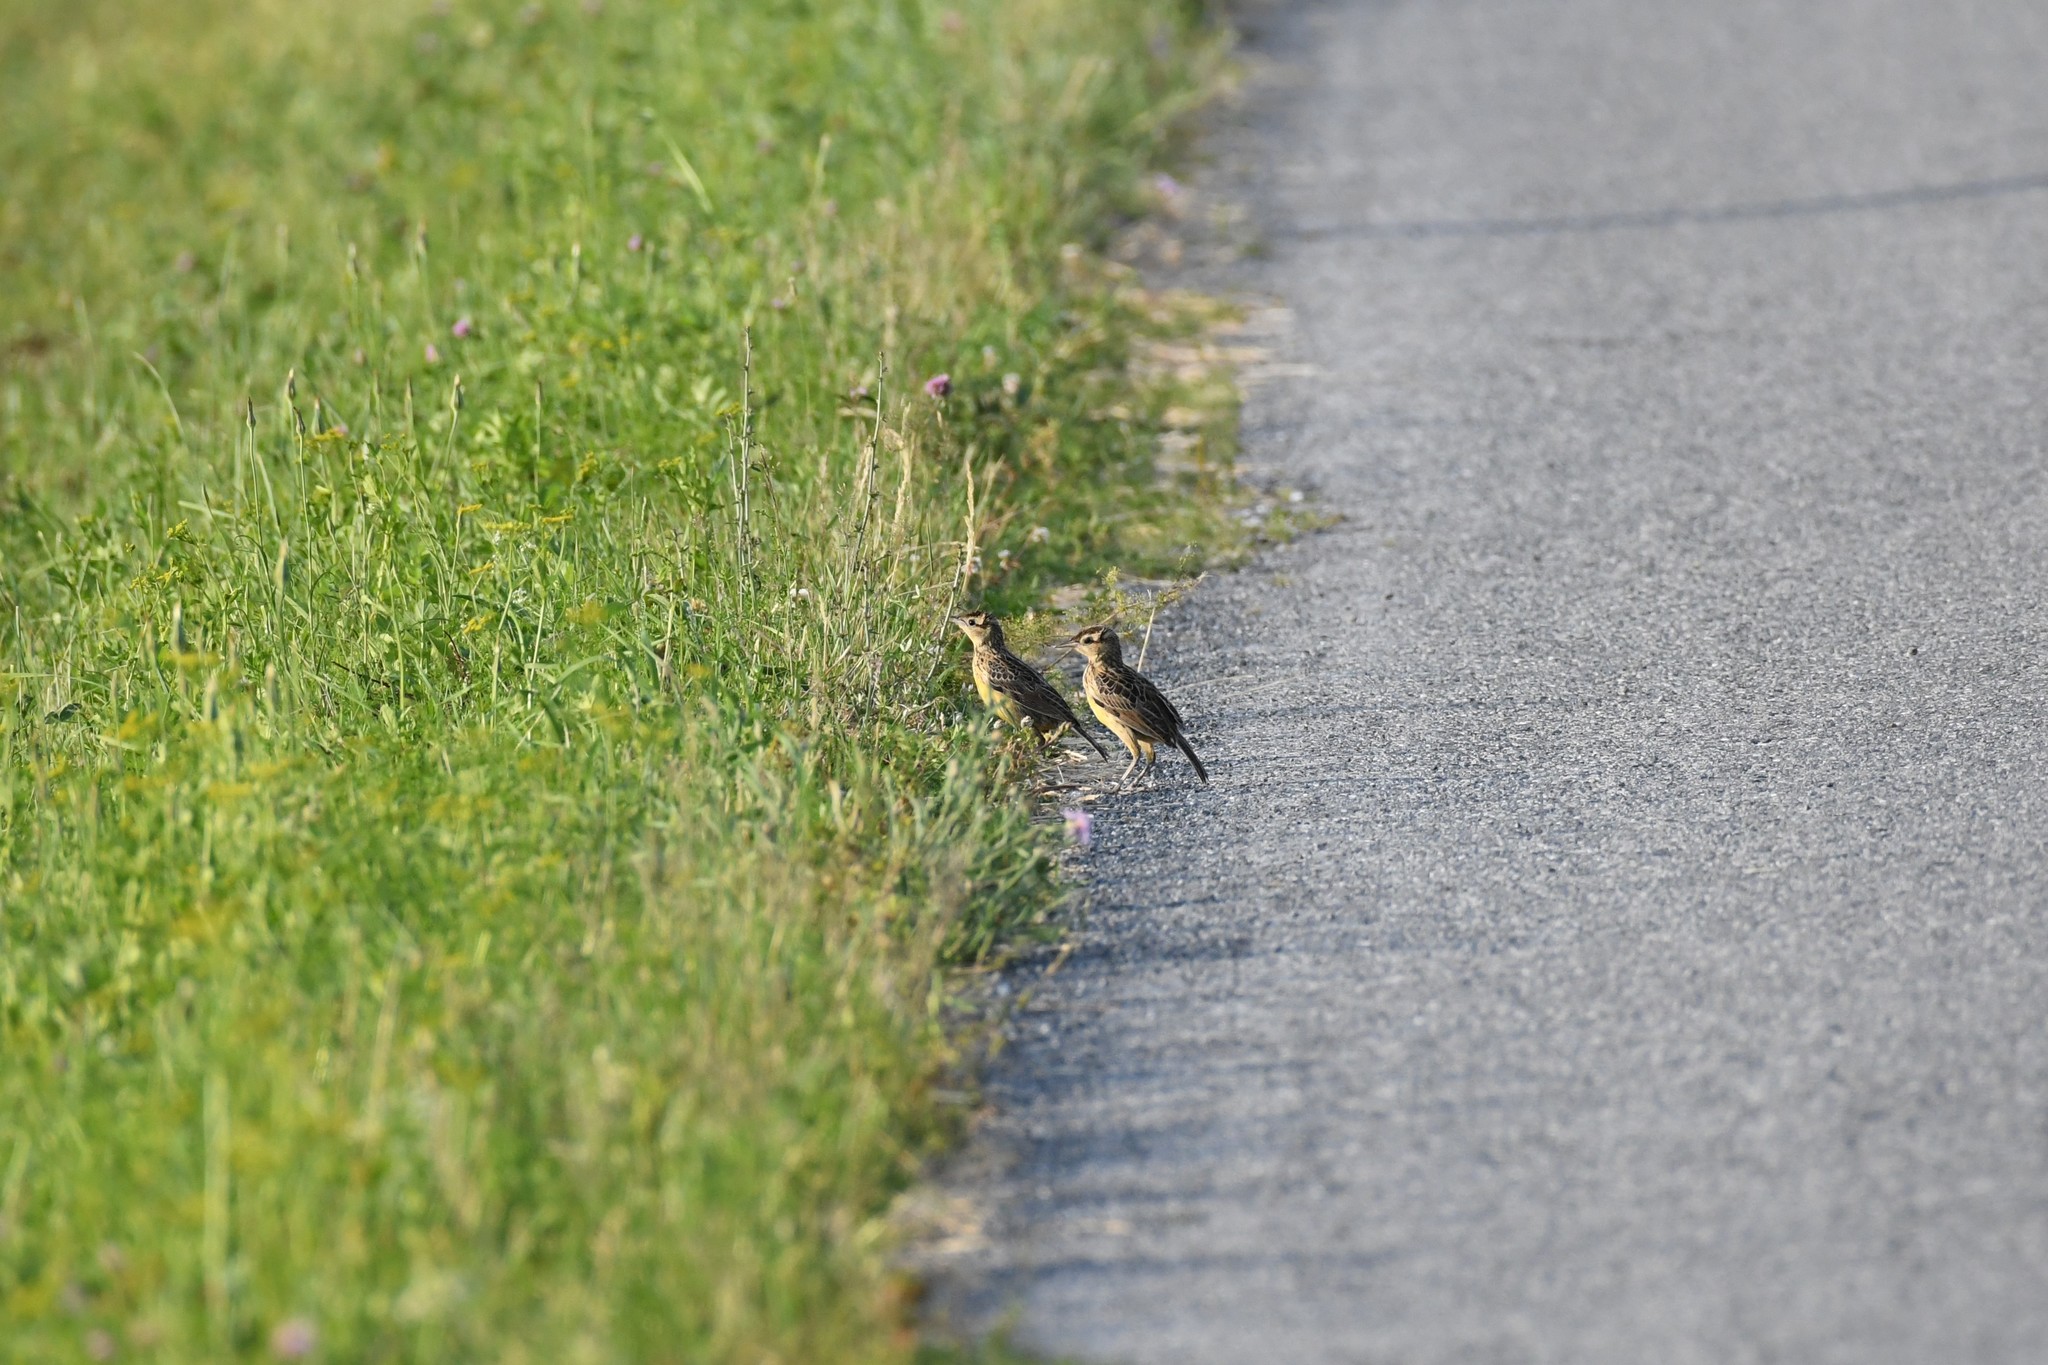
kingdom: Animalia
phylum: Chordata
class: Aves
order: Passeriformes
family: Icteridae
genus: Sturnella
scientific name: Sturnella magna
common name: Eastern meadowlark
